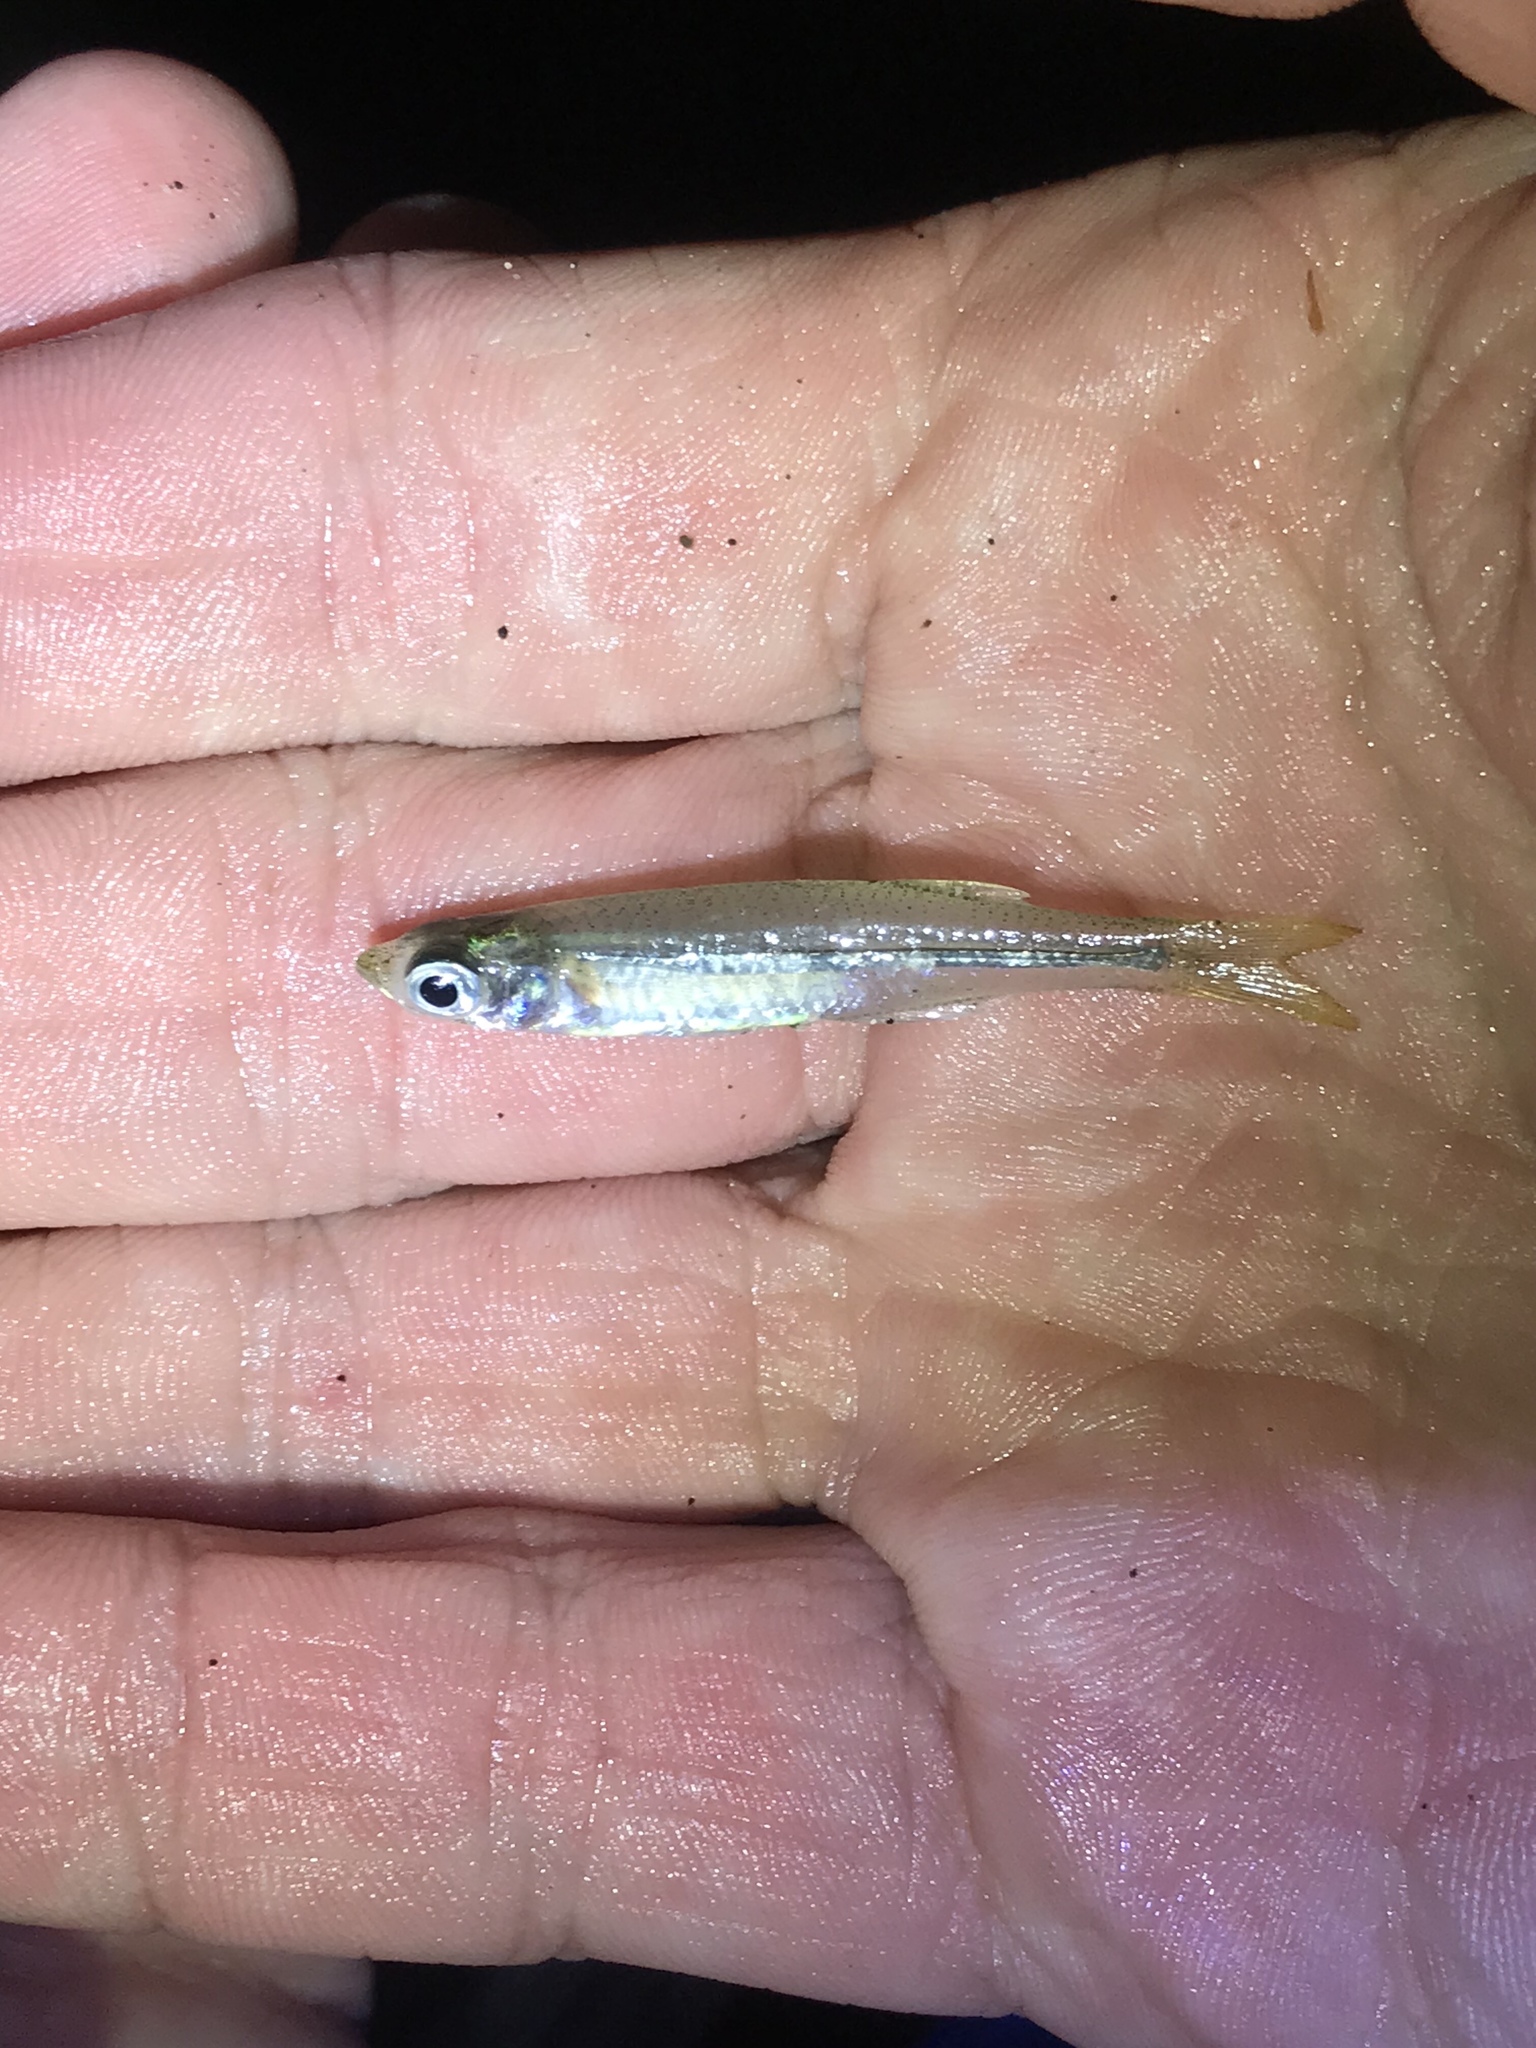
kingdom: Animalia
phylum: Chordata
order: Atheriniformes
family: Atherinopsidae
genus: Menidia
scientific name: Menidia beryllina
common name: Inland silverside
